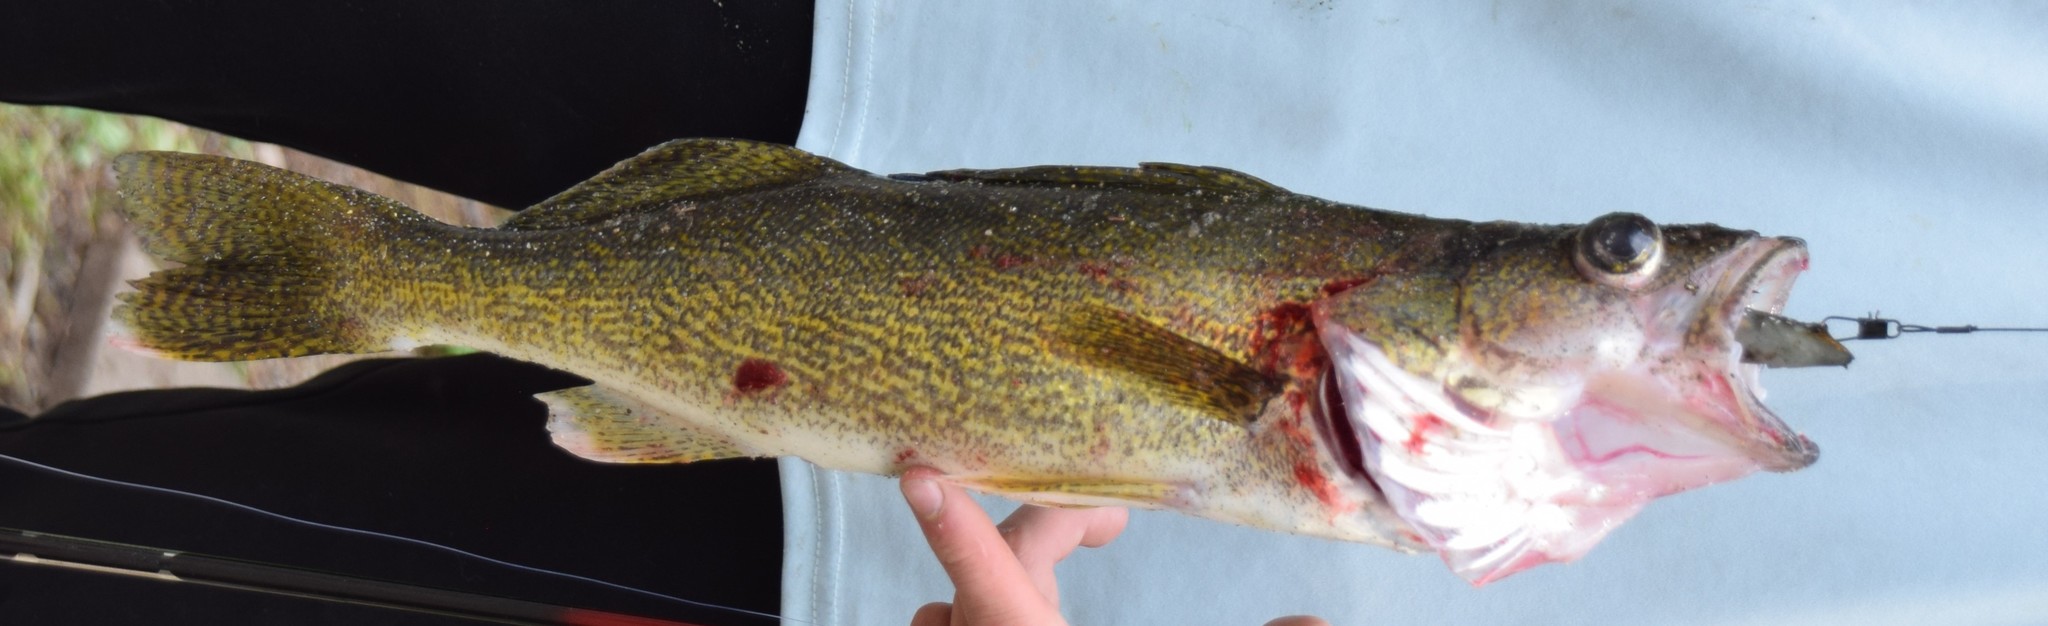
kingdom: Animalia
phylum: Chordata
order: Perciformes
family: Percidae
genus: Sander
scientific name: Sander vitreus
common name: Walleye
